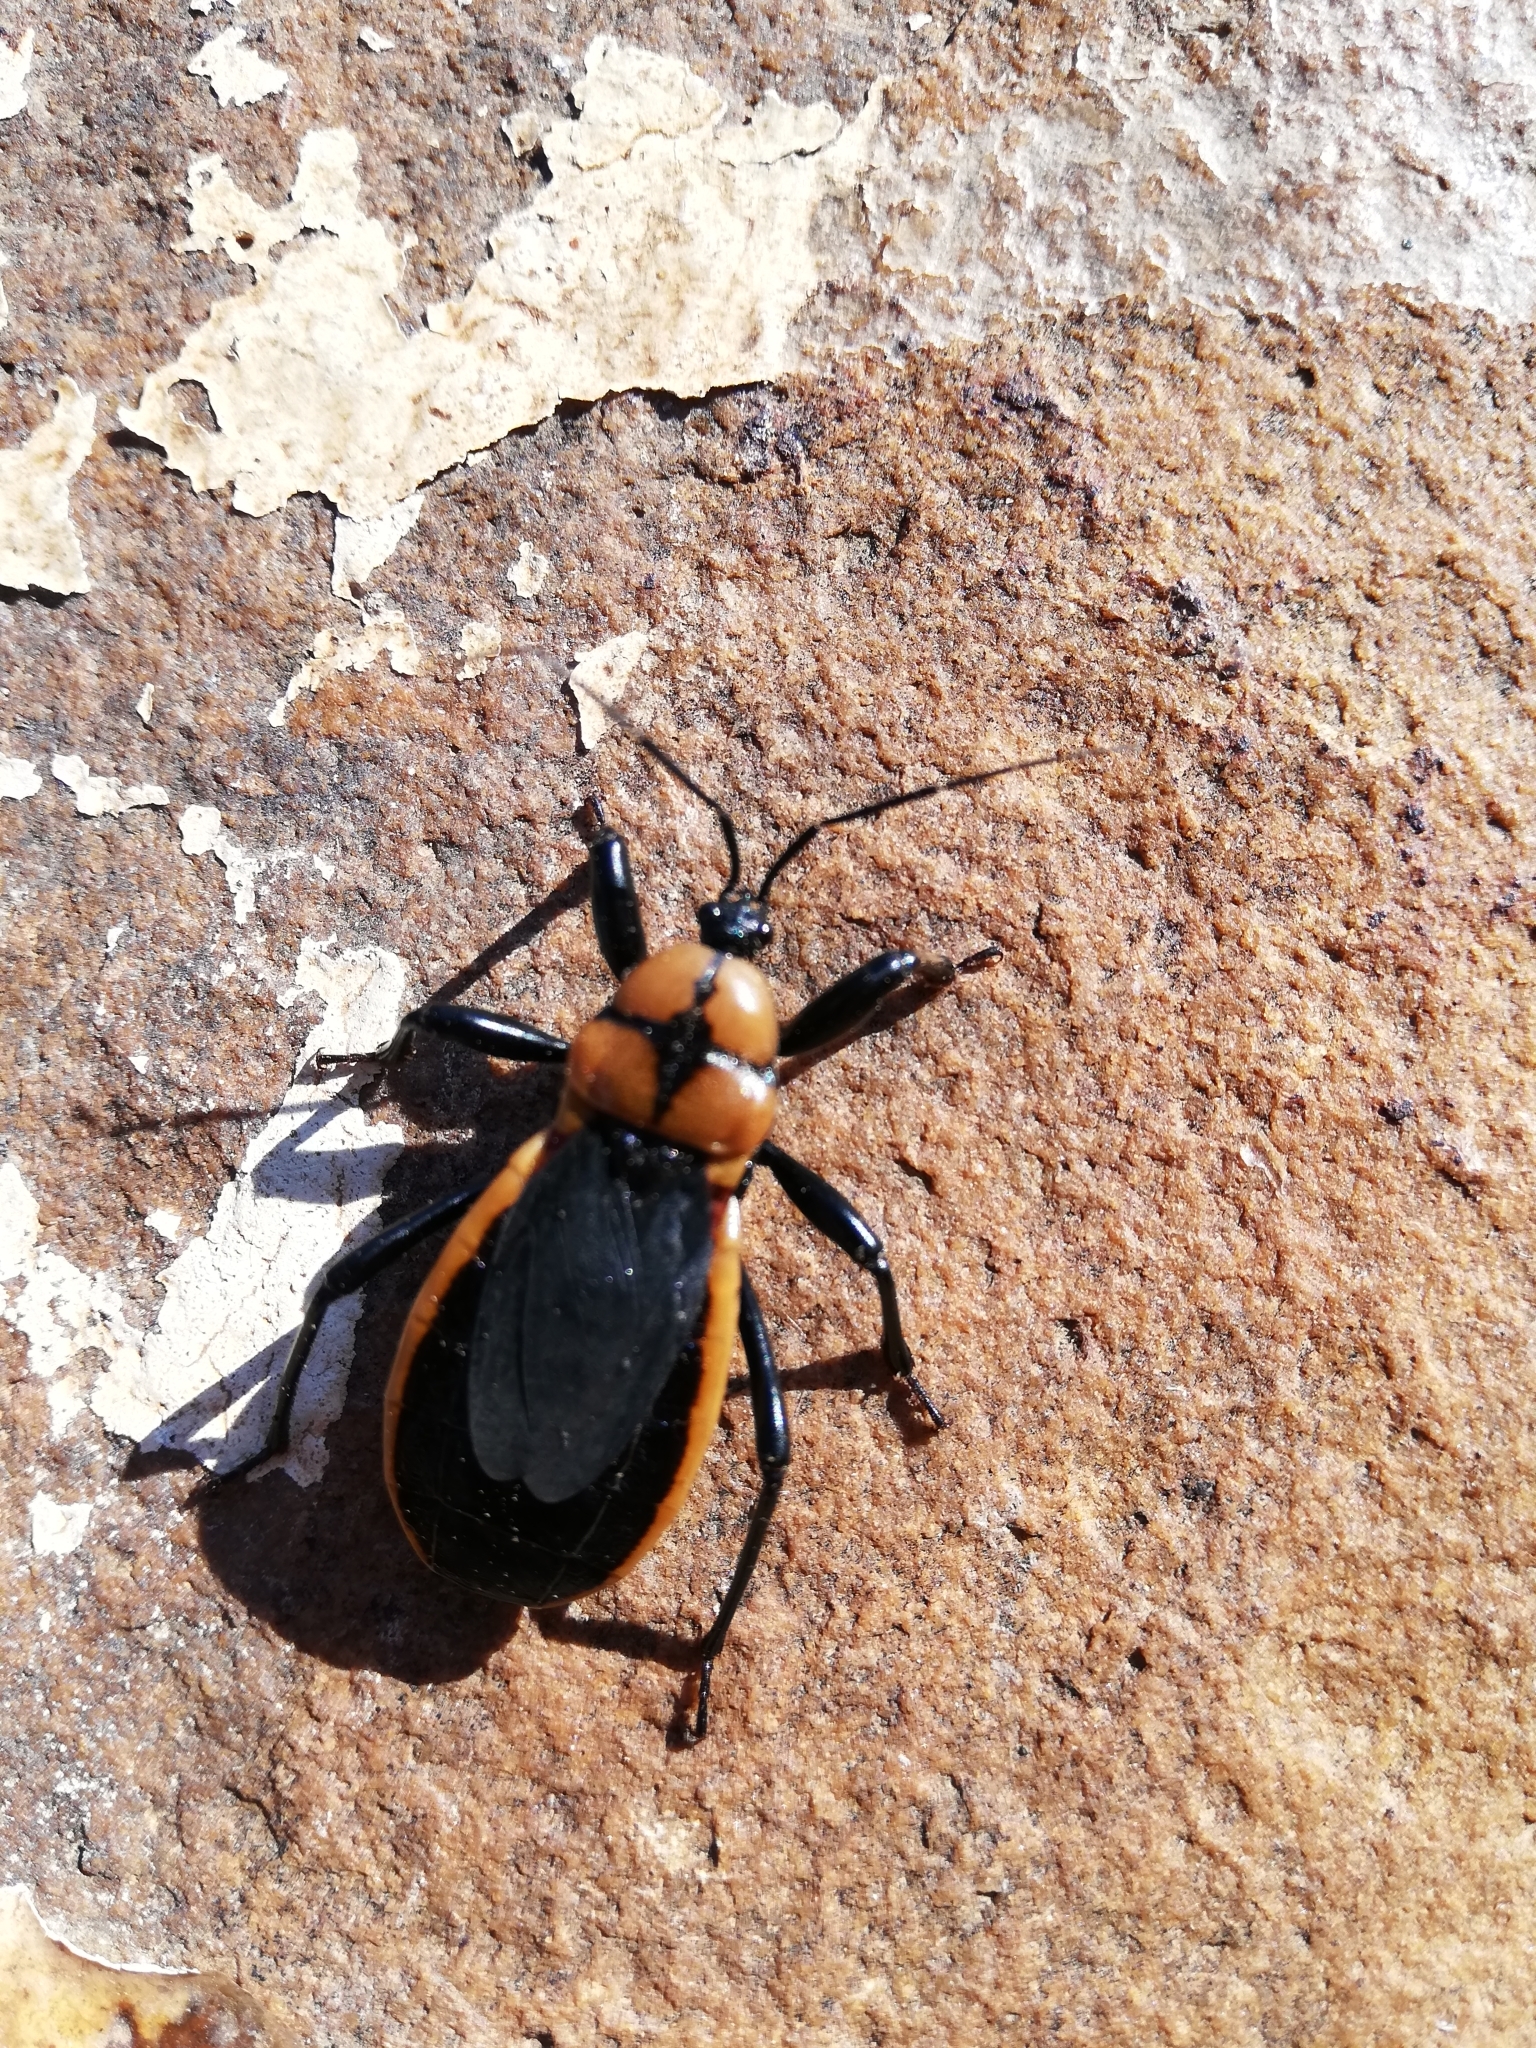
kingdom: Animalia
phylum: Arthropoda
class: Insecta
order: Hemiptera
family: Reduviidae
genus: Ectrichodia
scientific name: Ectrichodia crux
